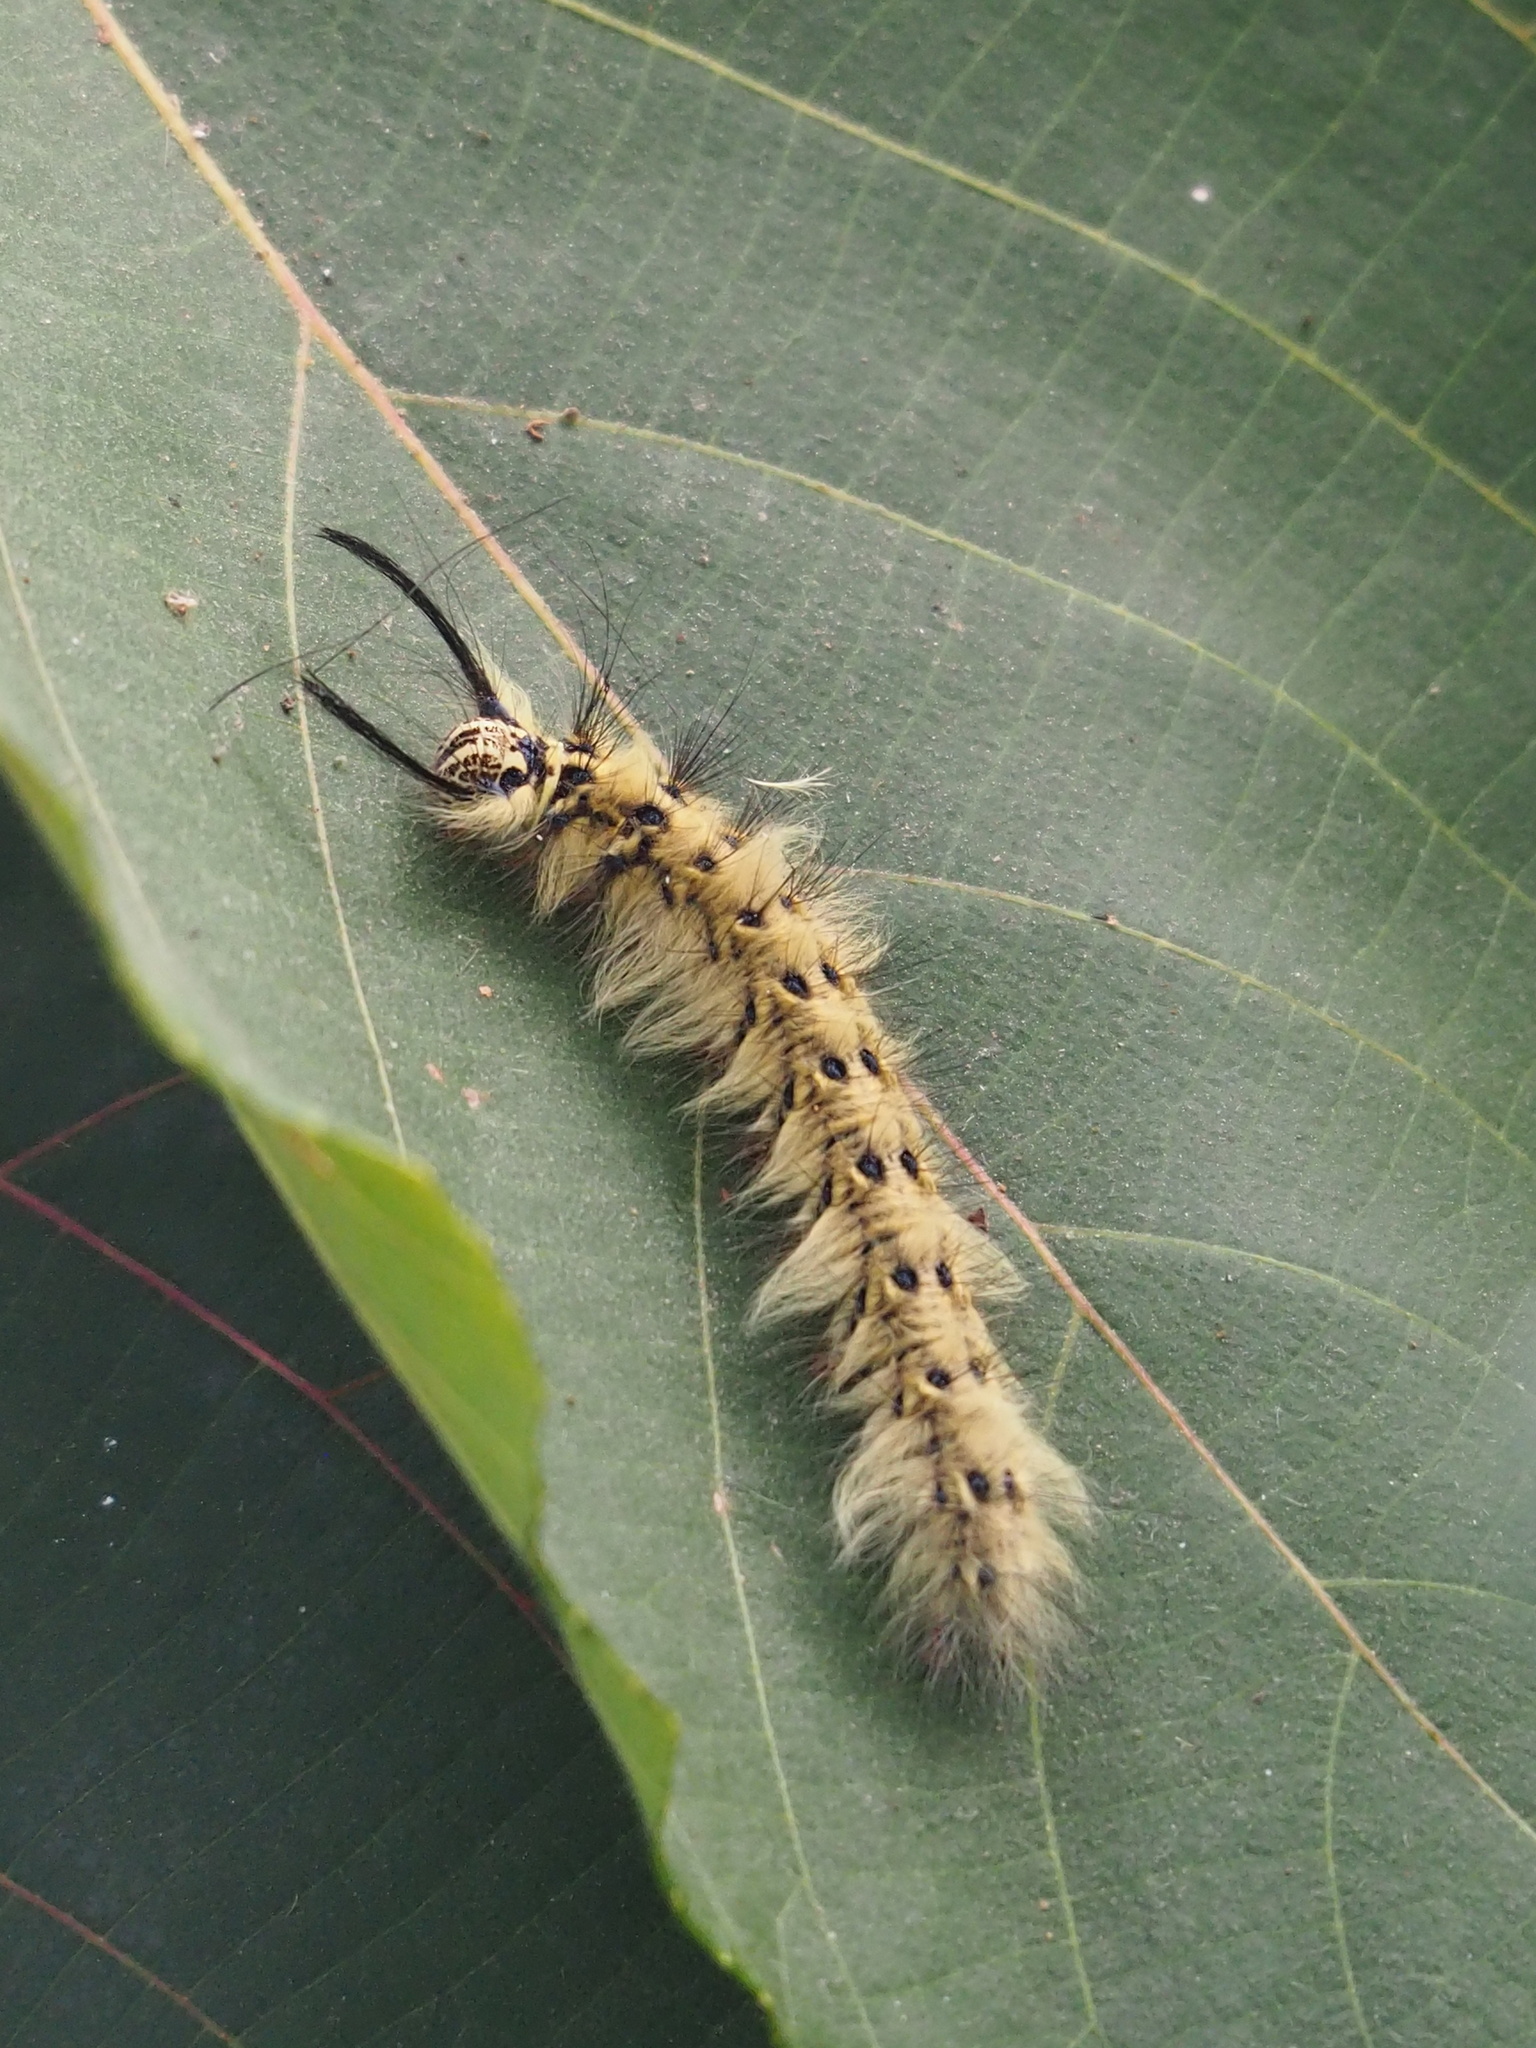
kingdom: Animalia
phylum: Arthropoda
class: Insecta
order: Lepidoptera
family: Lasiocampidae
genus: Trabala
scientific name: Trabala vishnou
